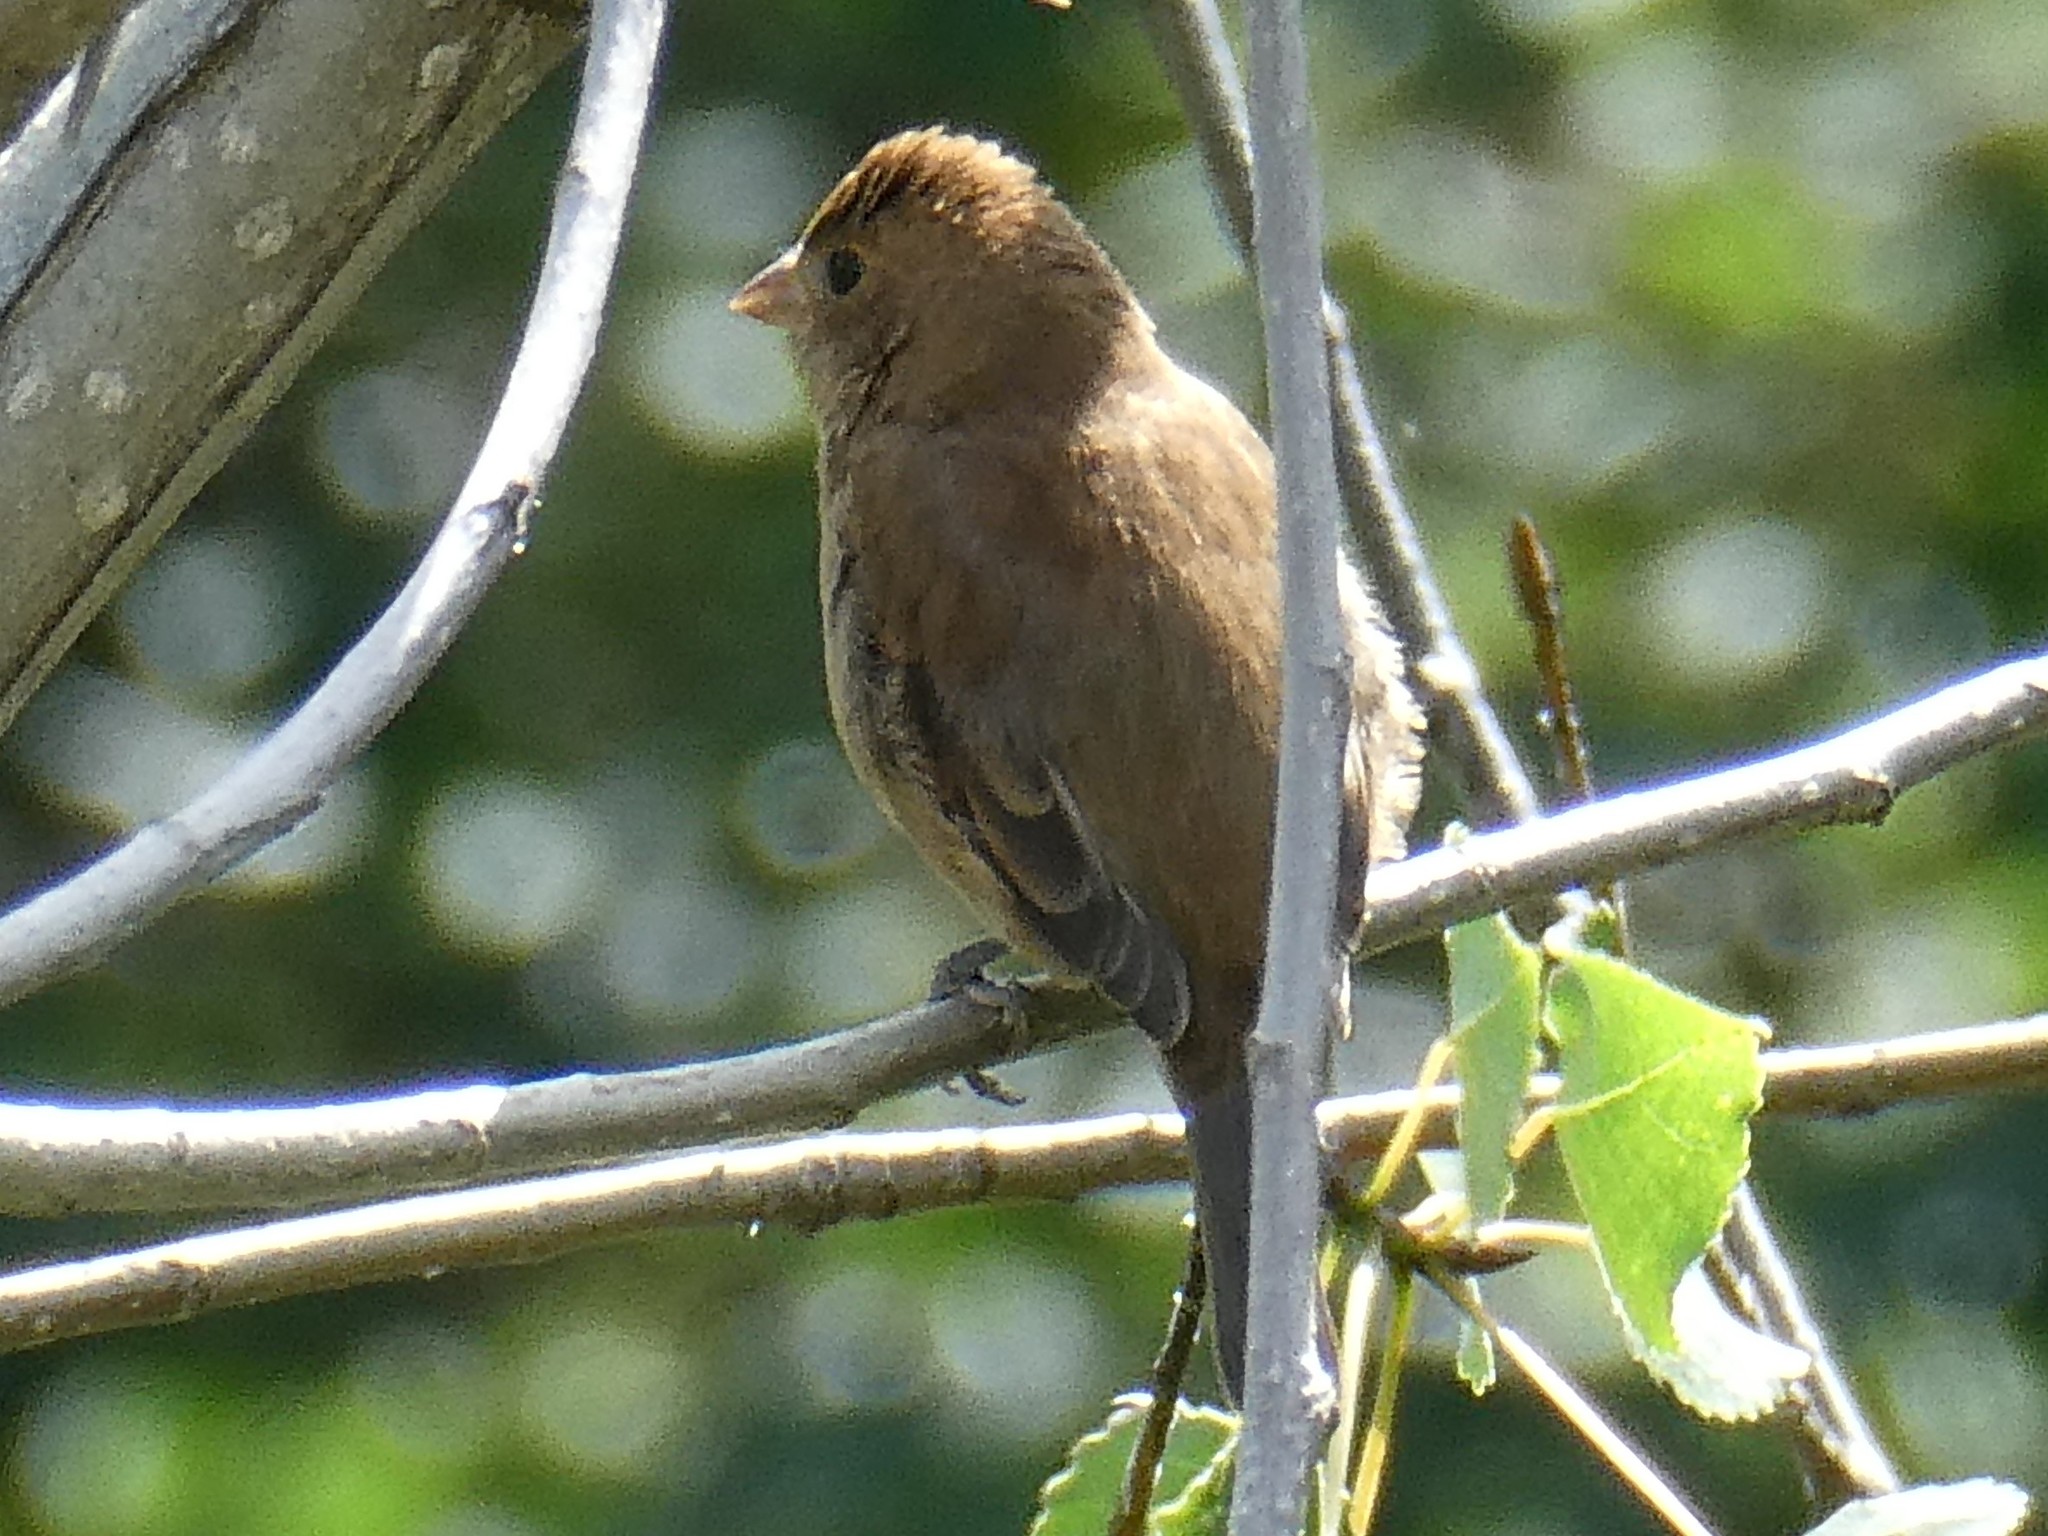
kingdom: Animalia
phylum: Chordata
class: Aves
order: Passeriformes
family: Cardinalidae
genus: Passerina
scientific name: Passerina cyanea
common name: Indigo bunting
